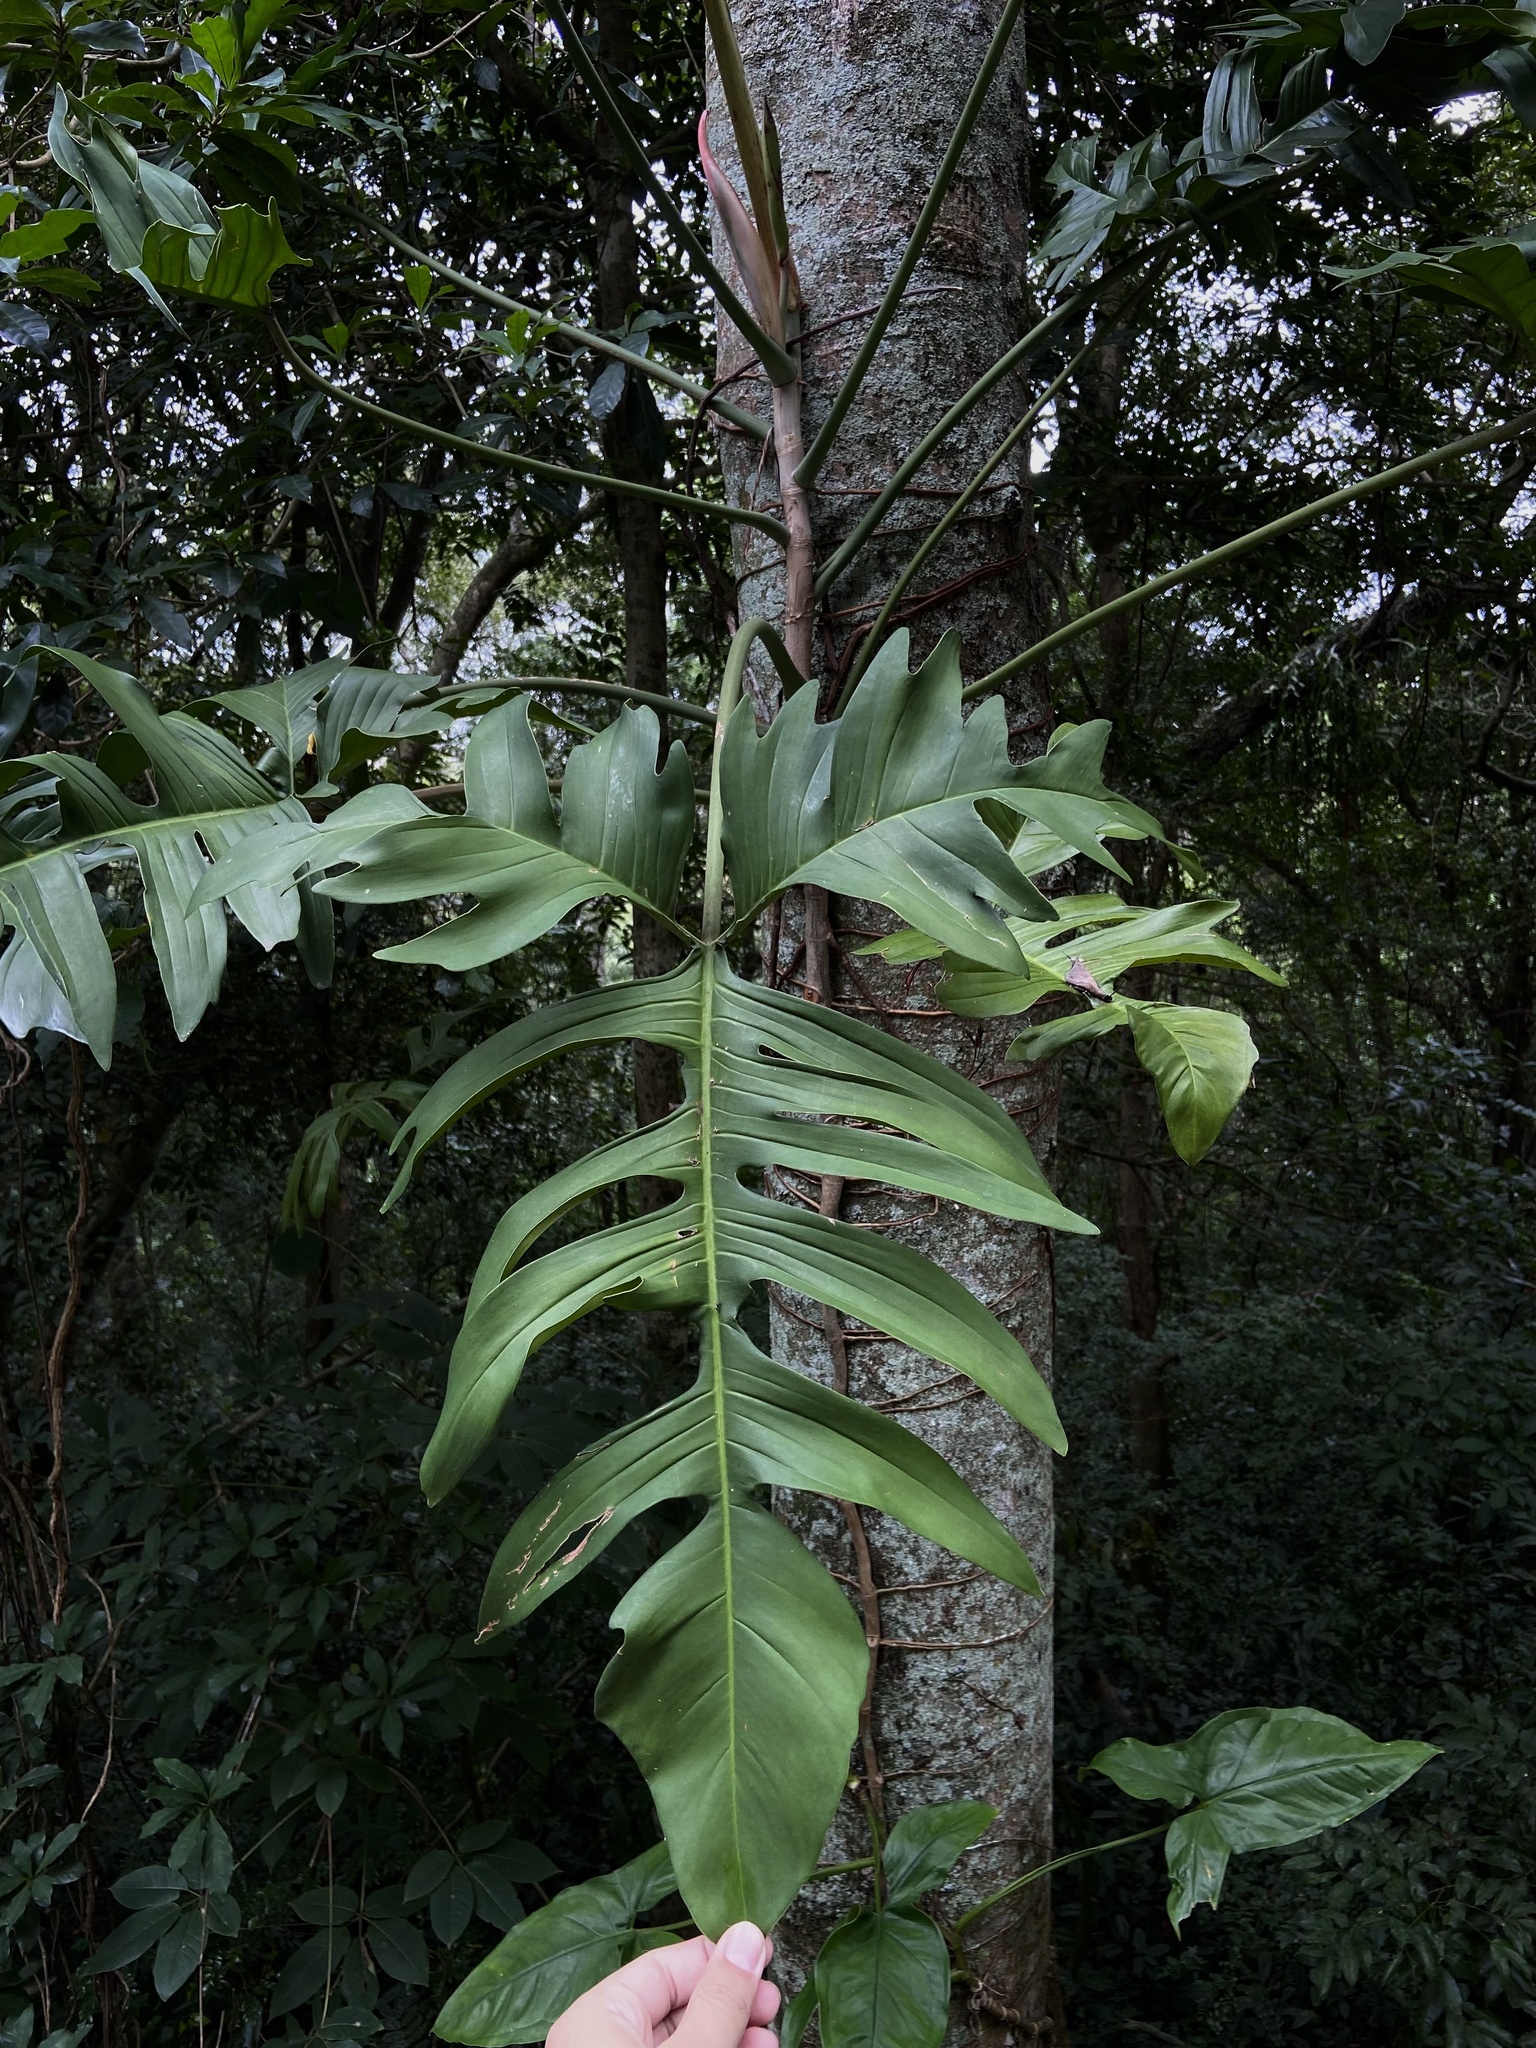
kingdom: Plantae
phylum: Tracheophyta
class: Liliopsida
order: Alismatales
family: Araceae
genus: Philodendron
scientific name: Philodendron pedatum
